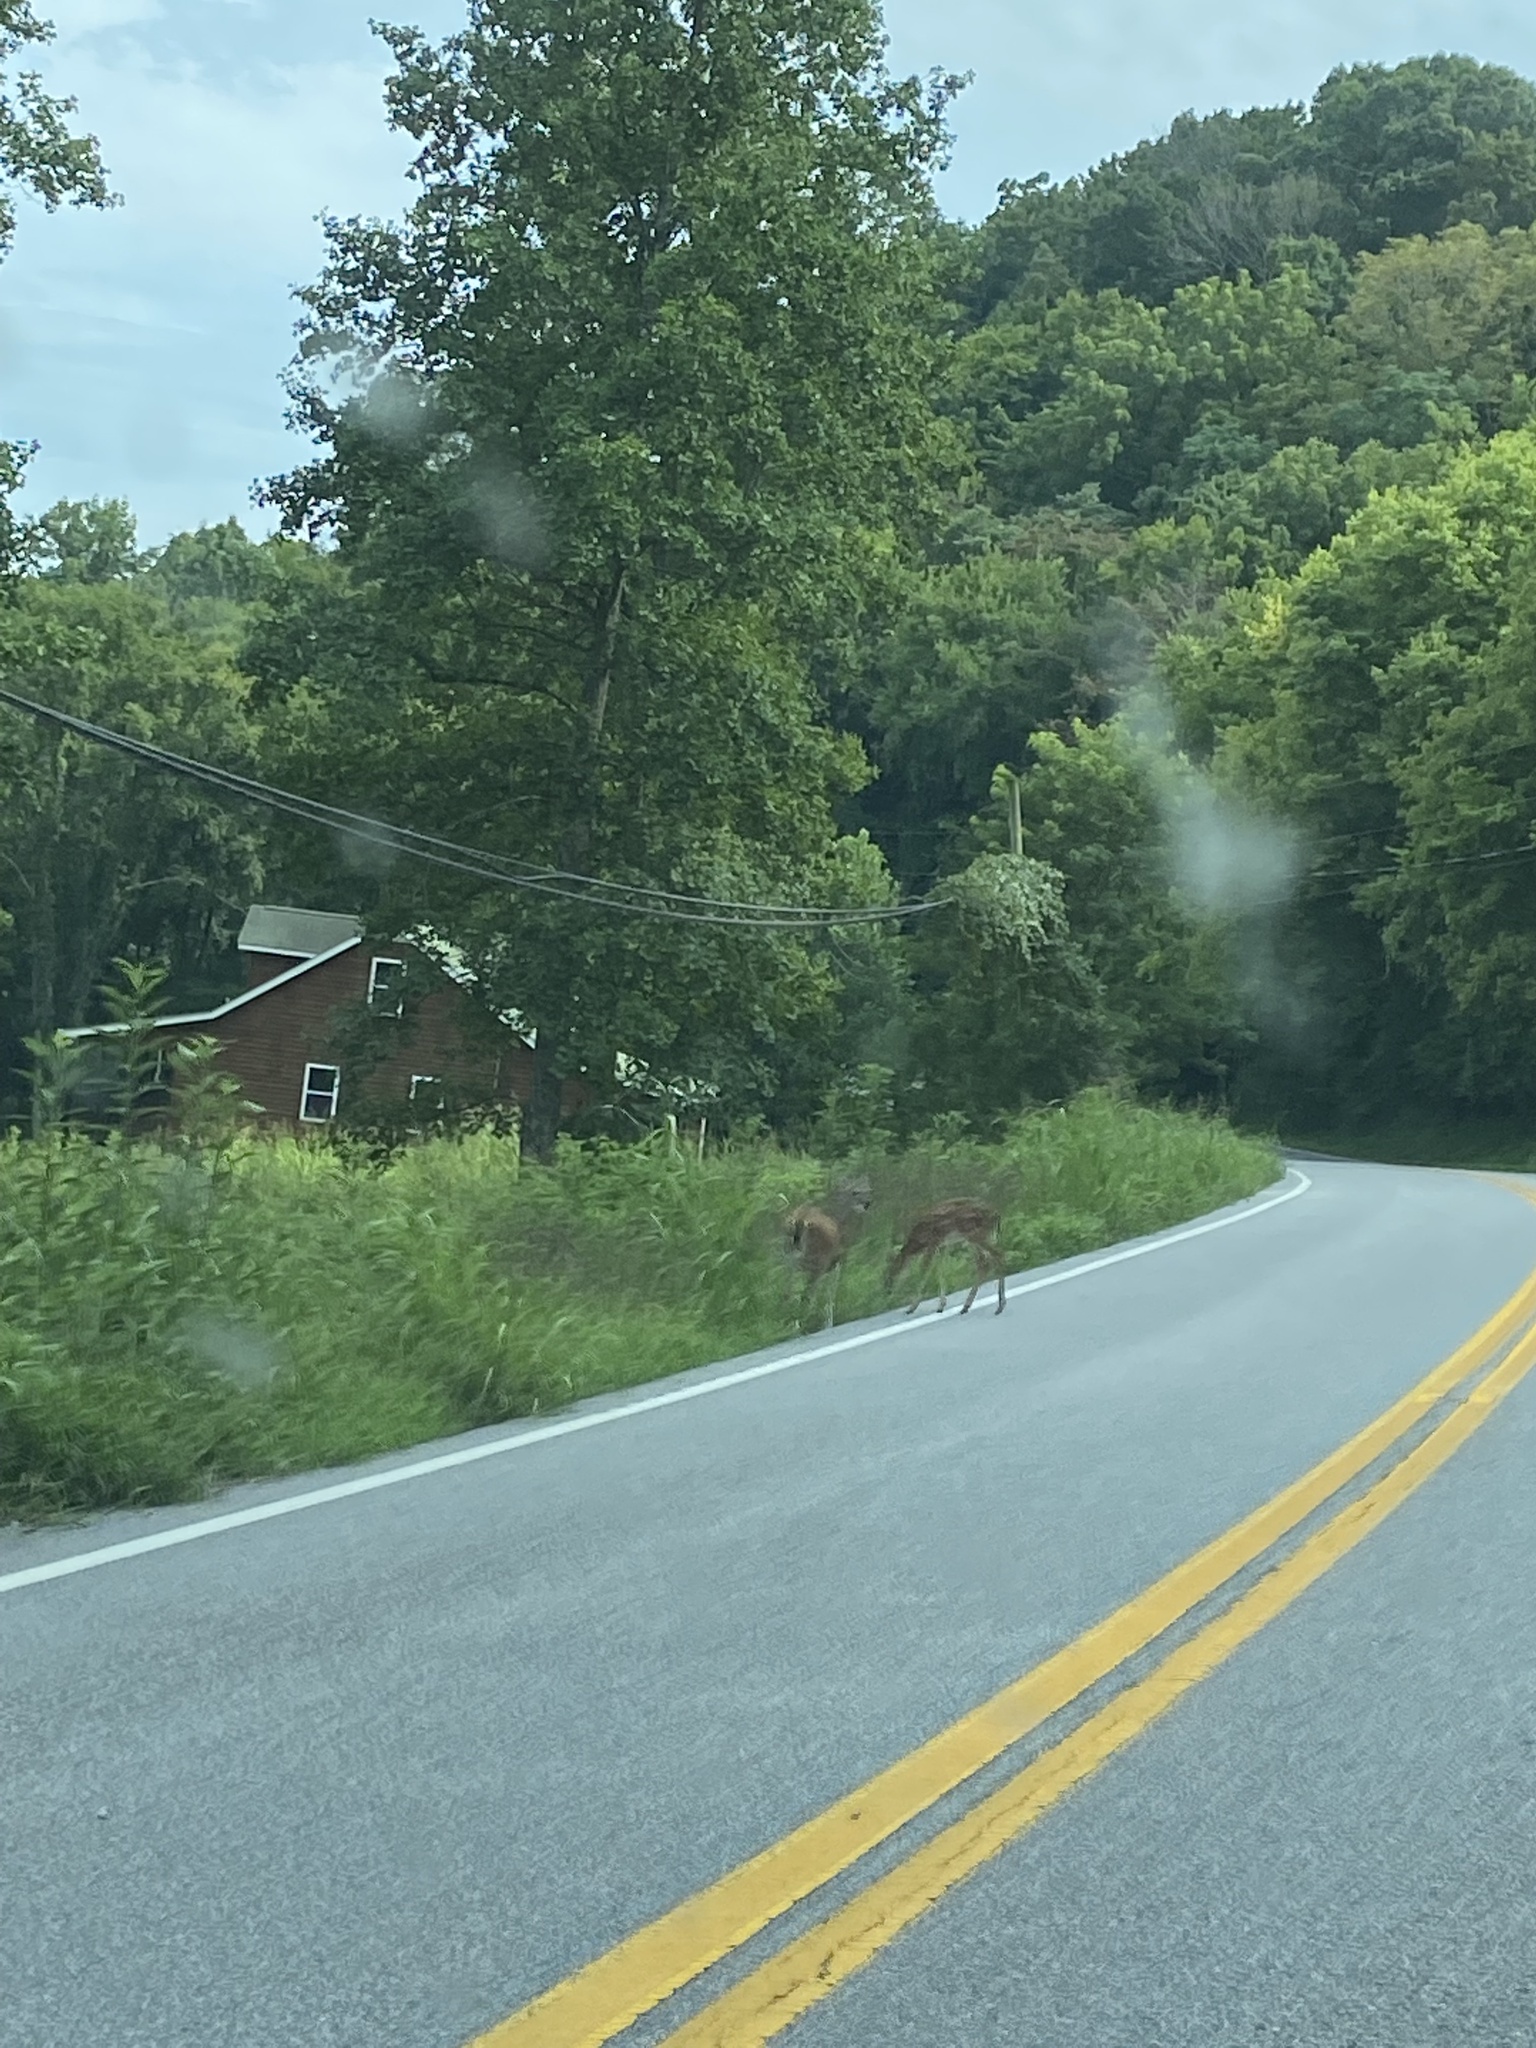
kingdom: Animalia
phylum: Chordata
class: Mammalia
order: Artiodactyla
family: Cervidae
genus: Odocoileus
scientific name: Odocoileus virginianus
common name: White-tailed deer
